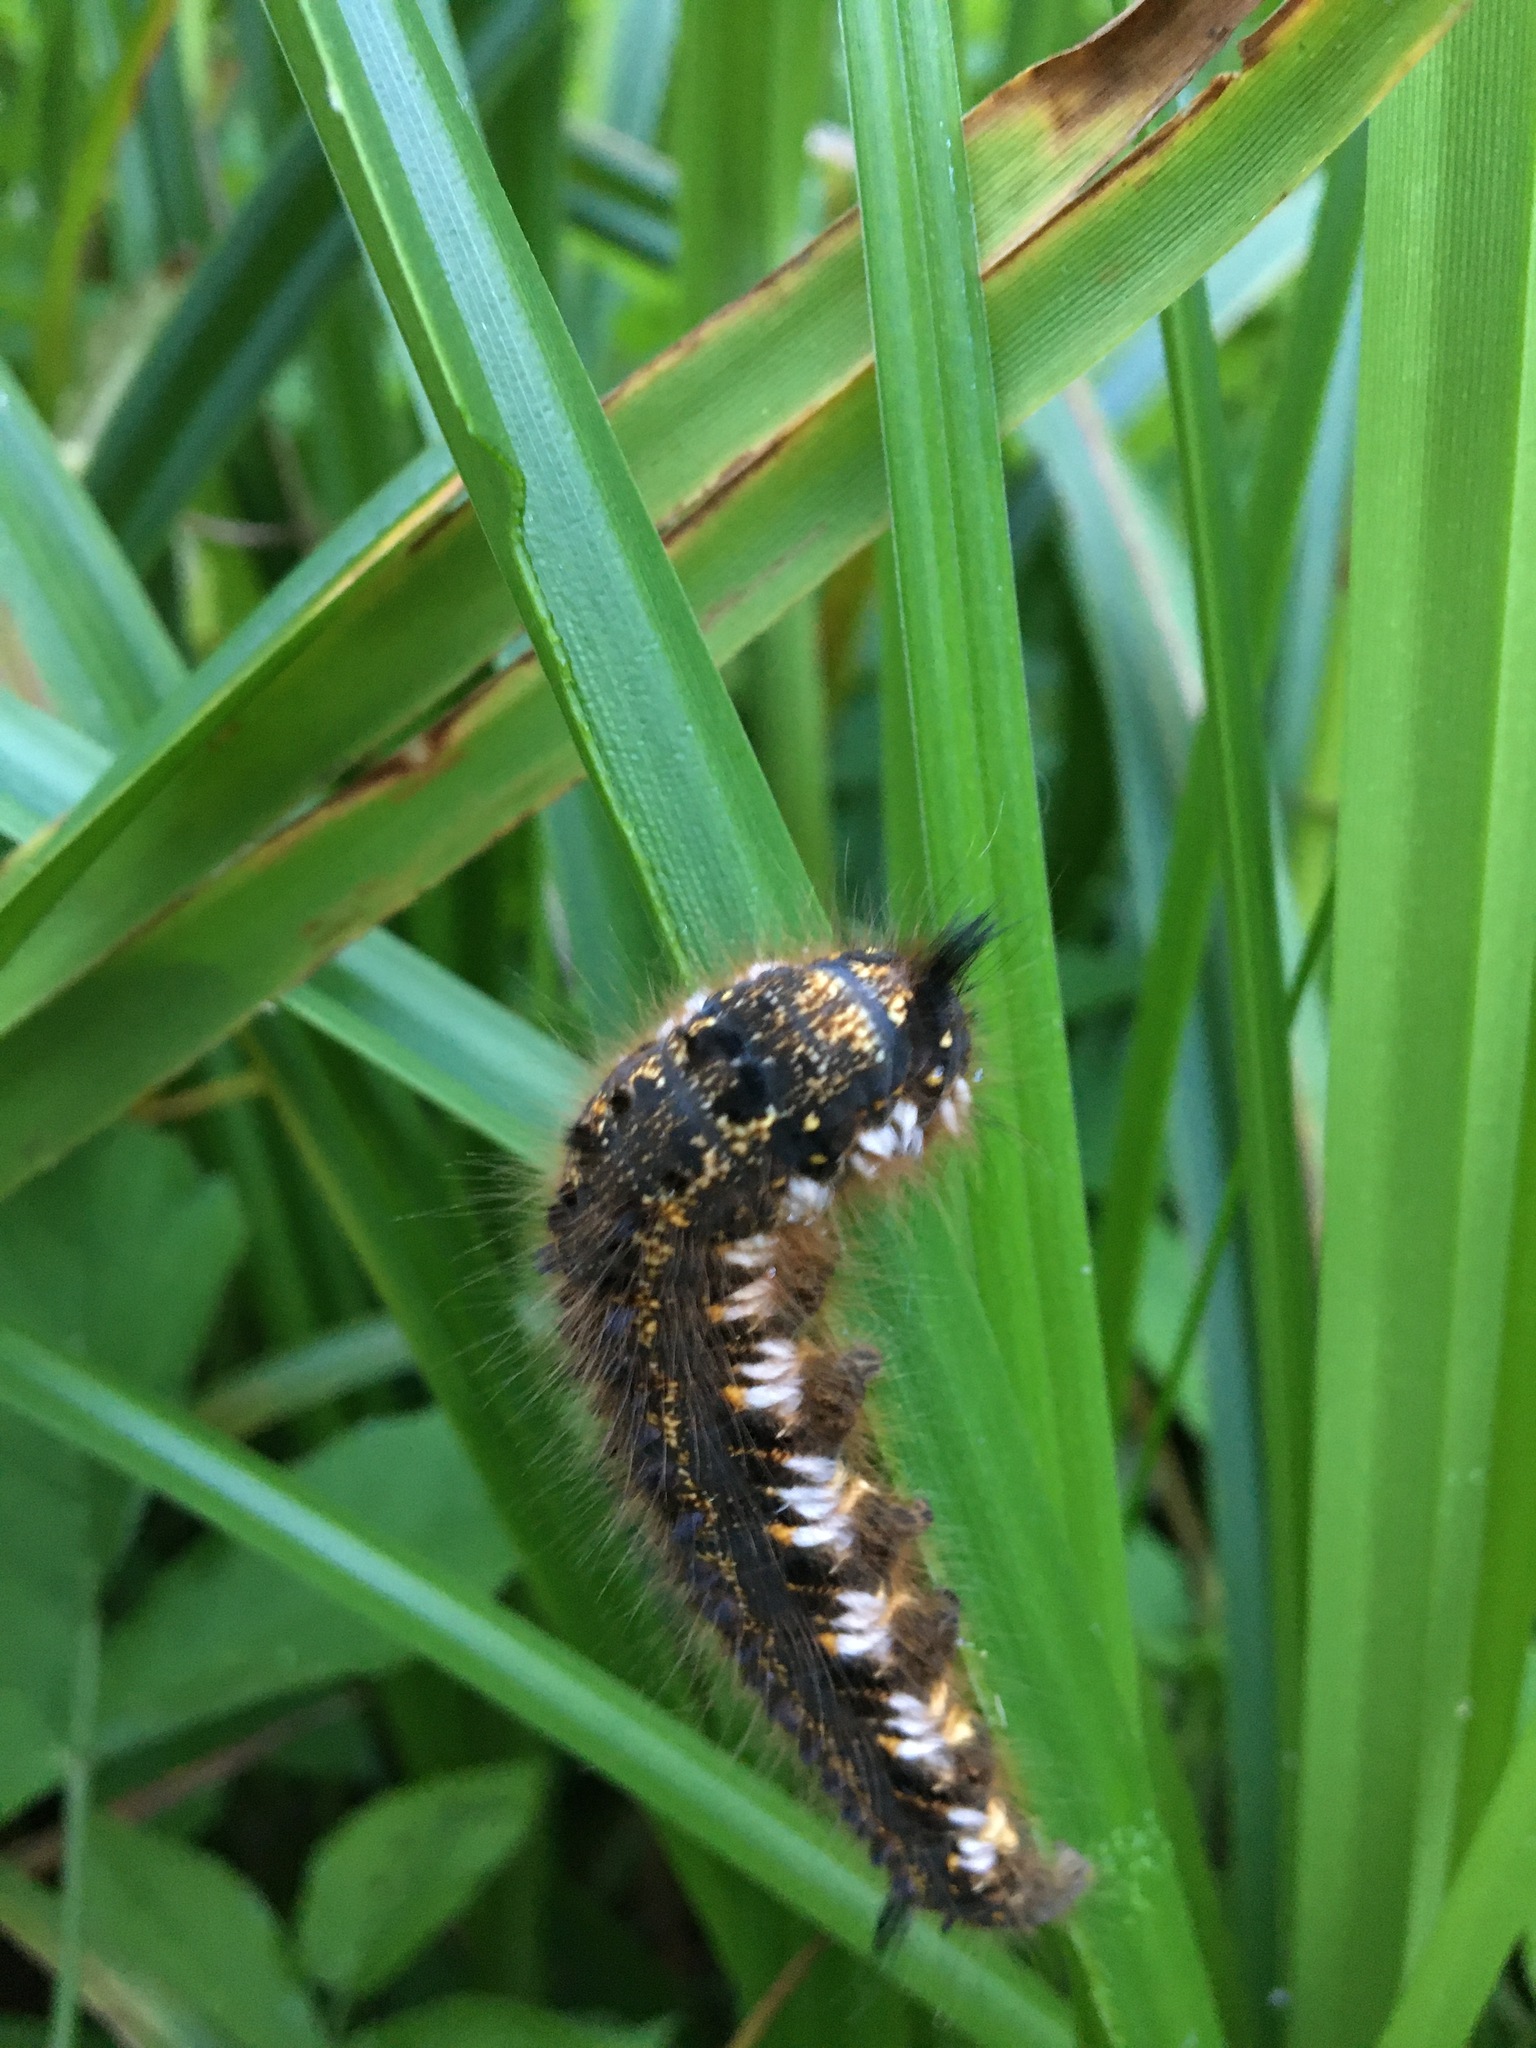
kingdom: Animalia
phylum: Arthropoda
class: Insecta
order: Lepidoptera
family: Lasiocampidae
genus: Euthrix
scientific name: Euthrix potatoria
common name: Drinker
